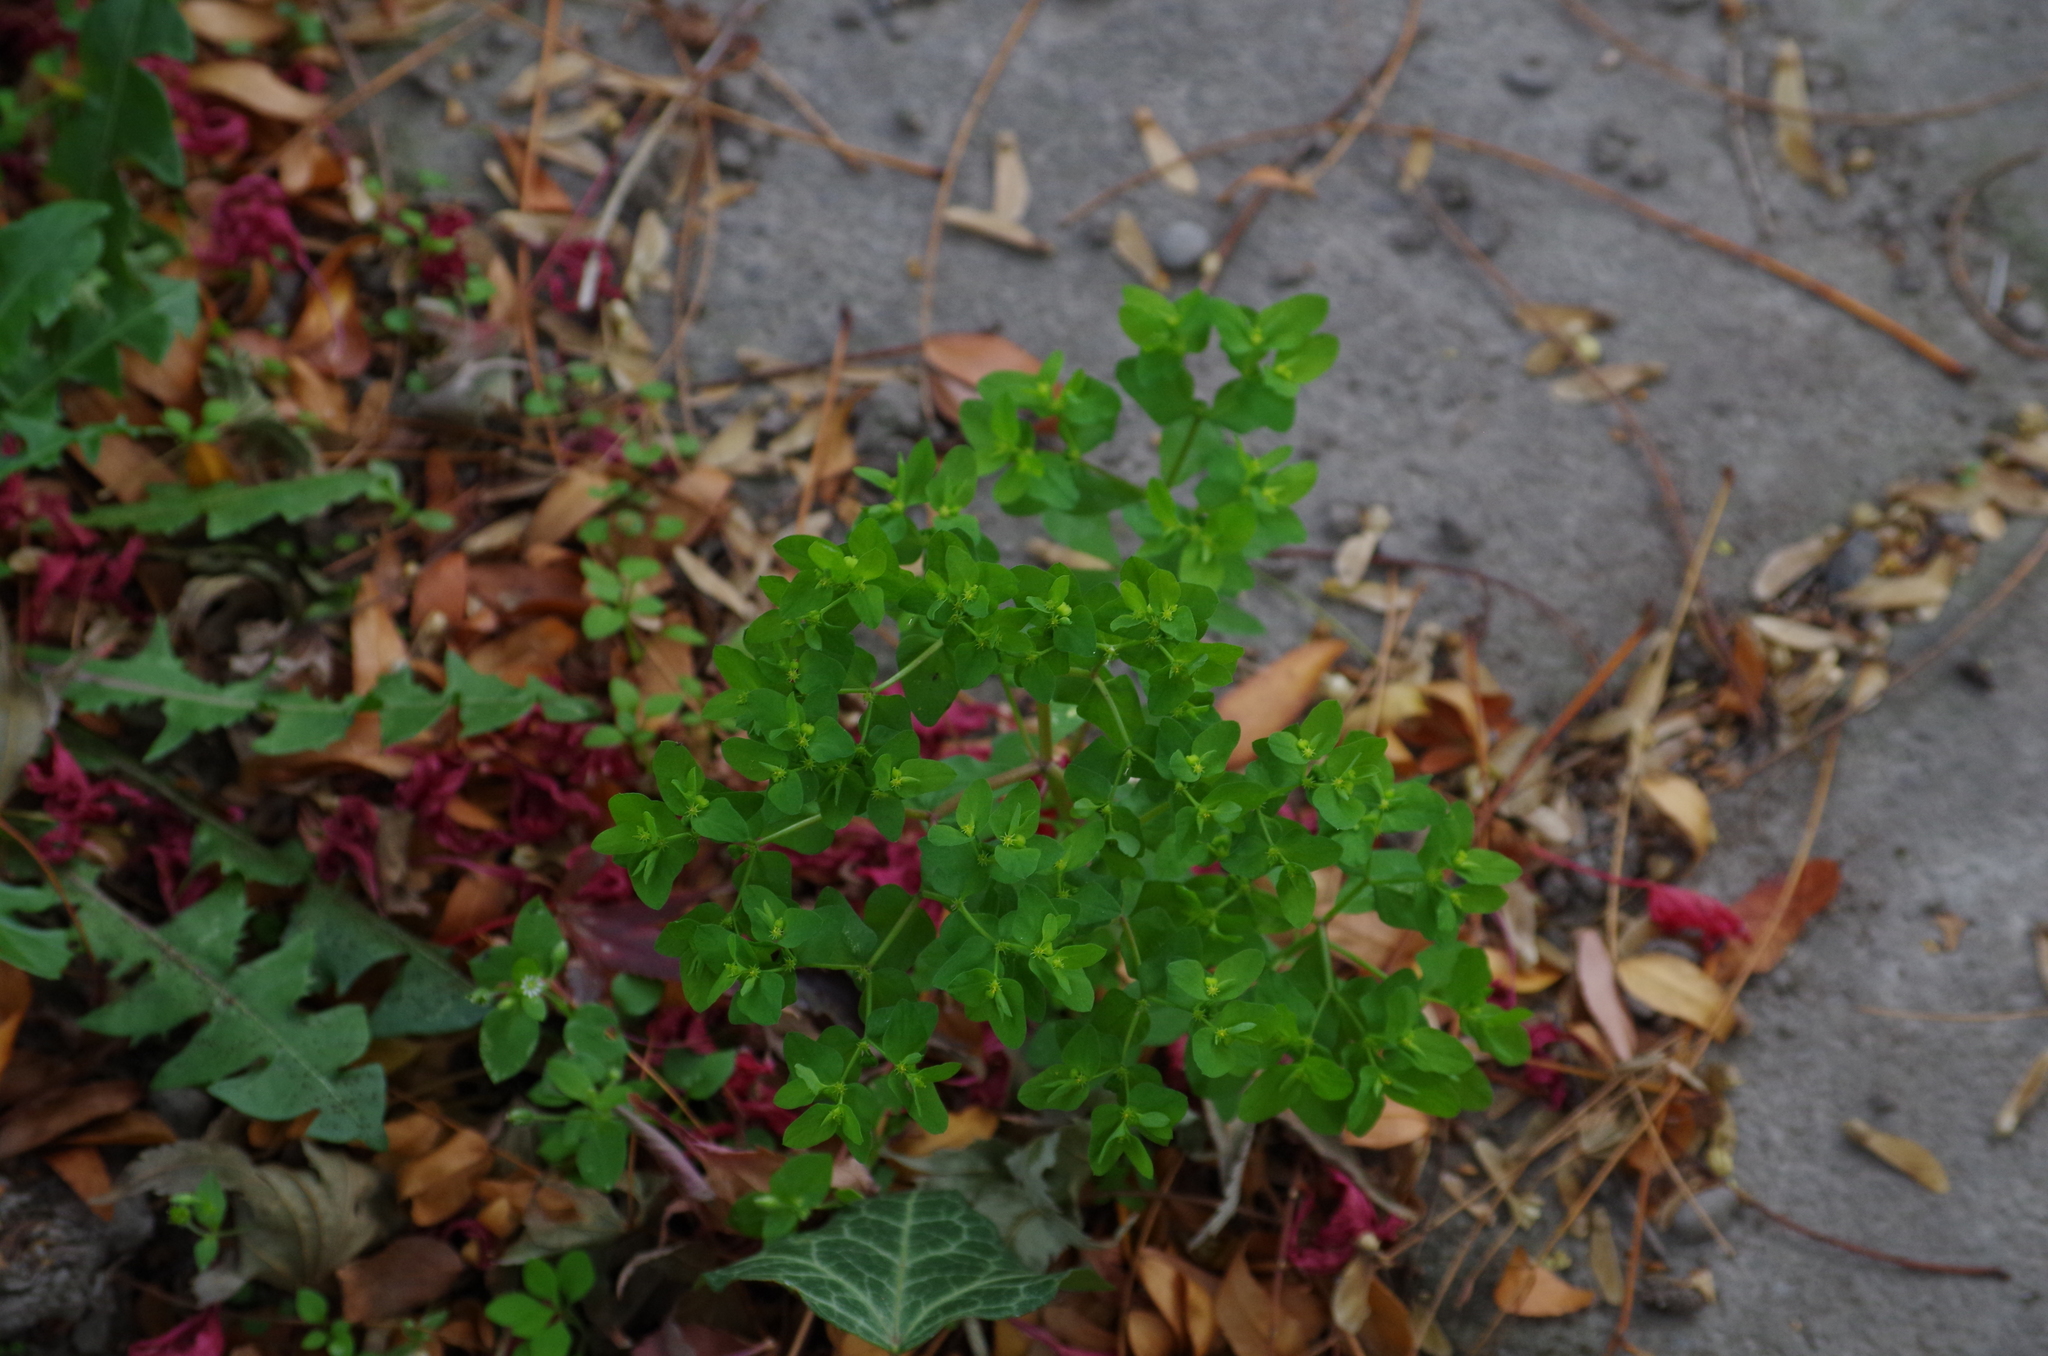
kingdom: Plantae
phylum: Tracheophyta
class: Magnoliopsida
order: Malpighiales
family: Euphorbiaceae
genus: Euphorbia
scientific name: Euphorbia peplus
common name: Petty spurge
